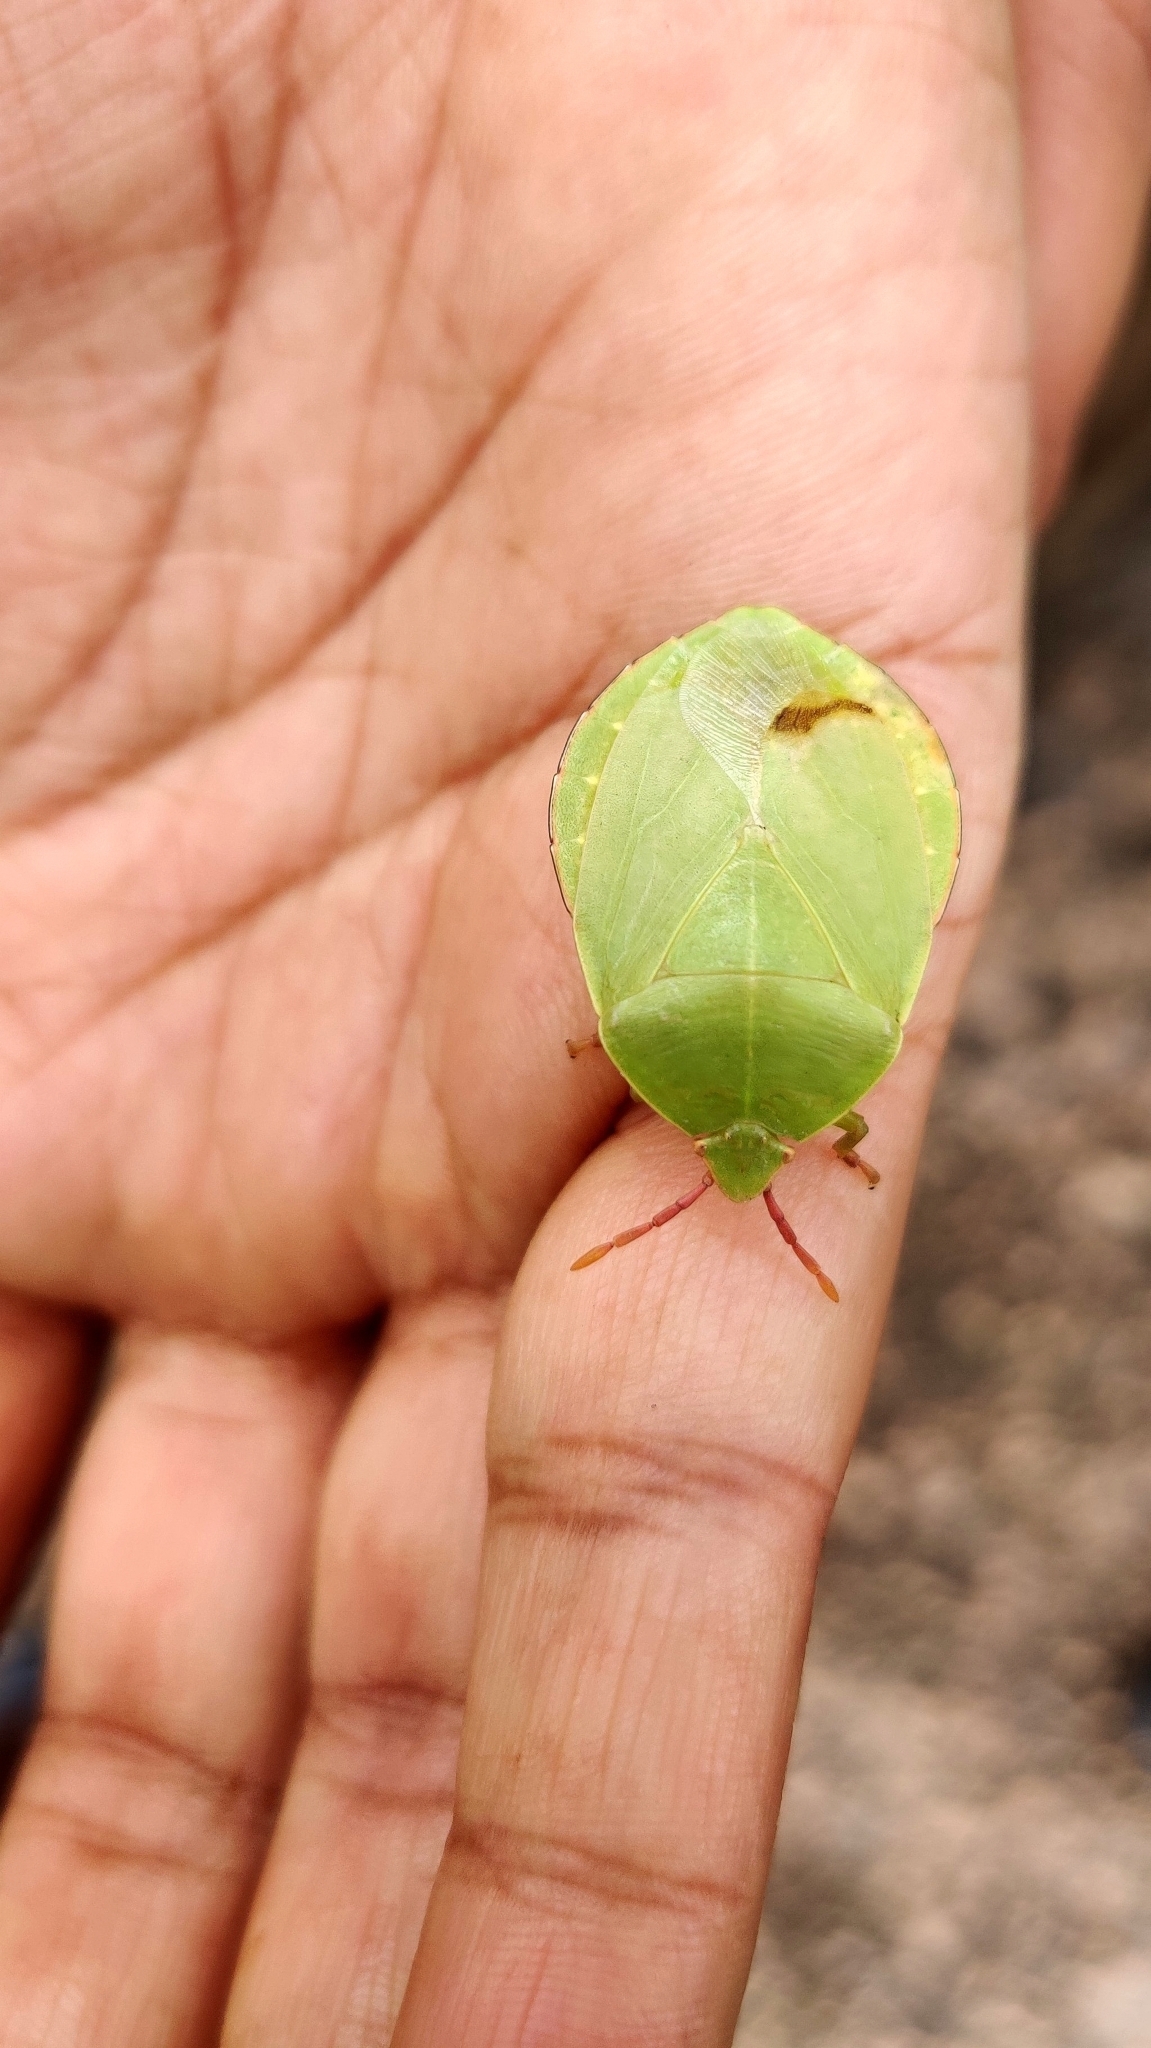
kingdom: Animalia
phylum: Arthropoda
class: Insecta
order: Hemiptera
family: Tessaratomidae
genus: Empysarus
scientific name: Empysarus depressus
